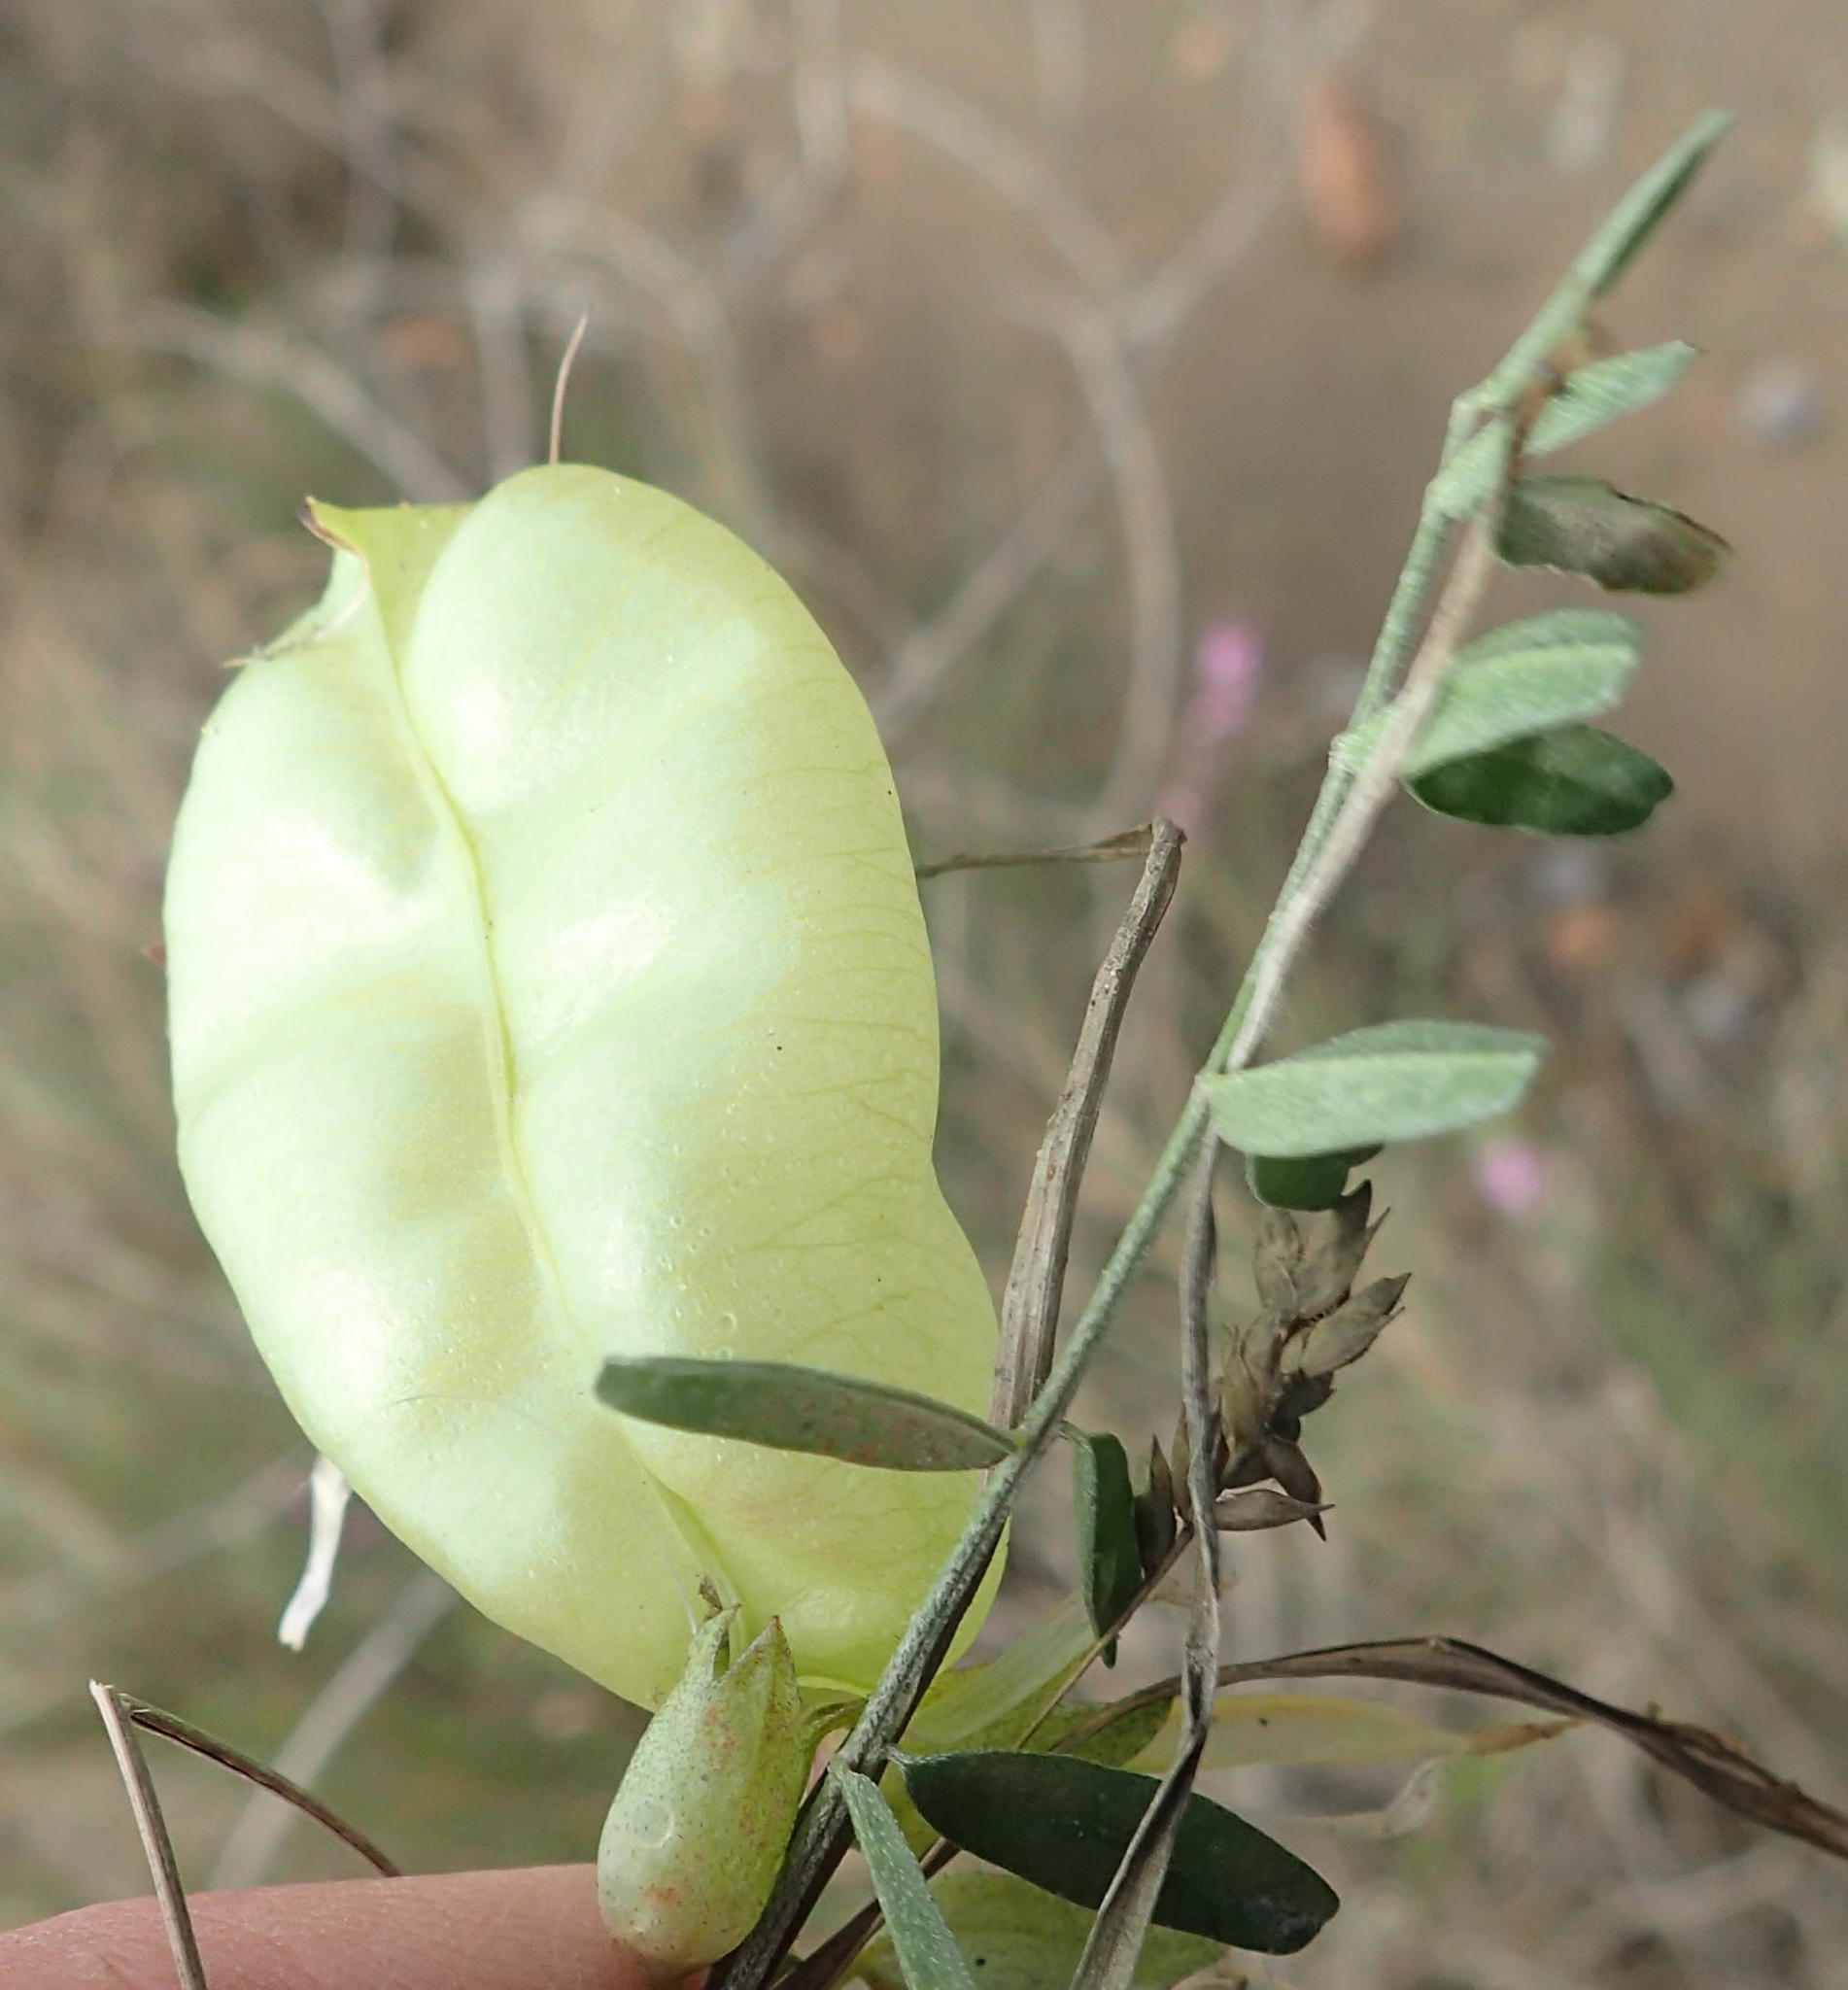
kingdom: Plantae
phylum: Tracheophyta
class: Magnoliopsida
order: Fabales
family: Fabaceae
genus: Lessertia
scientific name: Lessertia frutescens
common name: Balloon-pea
